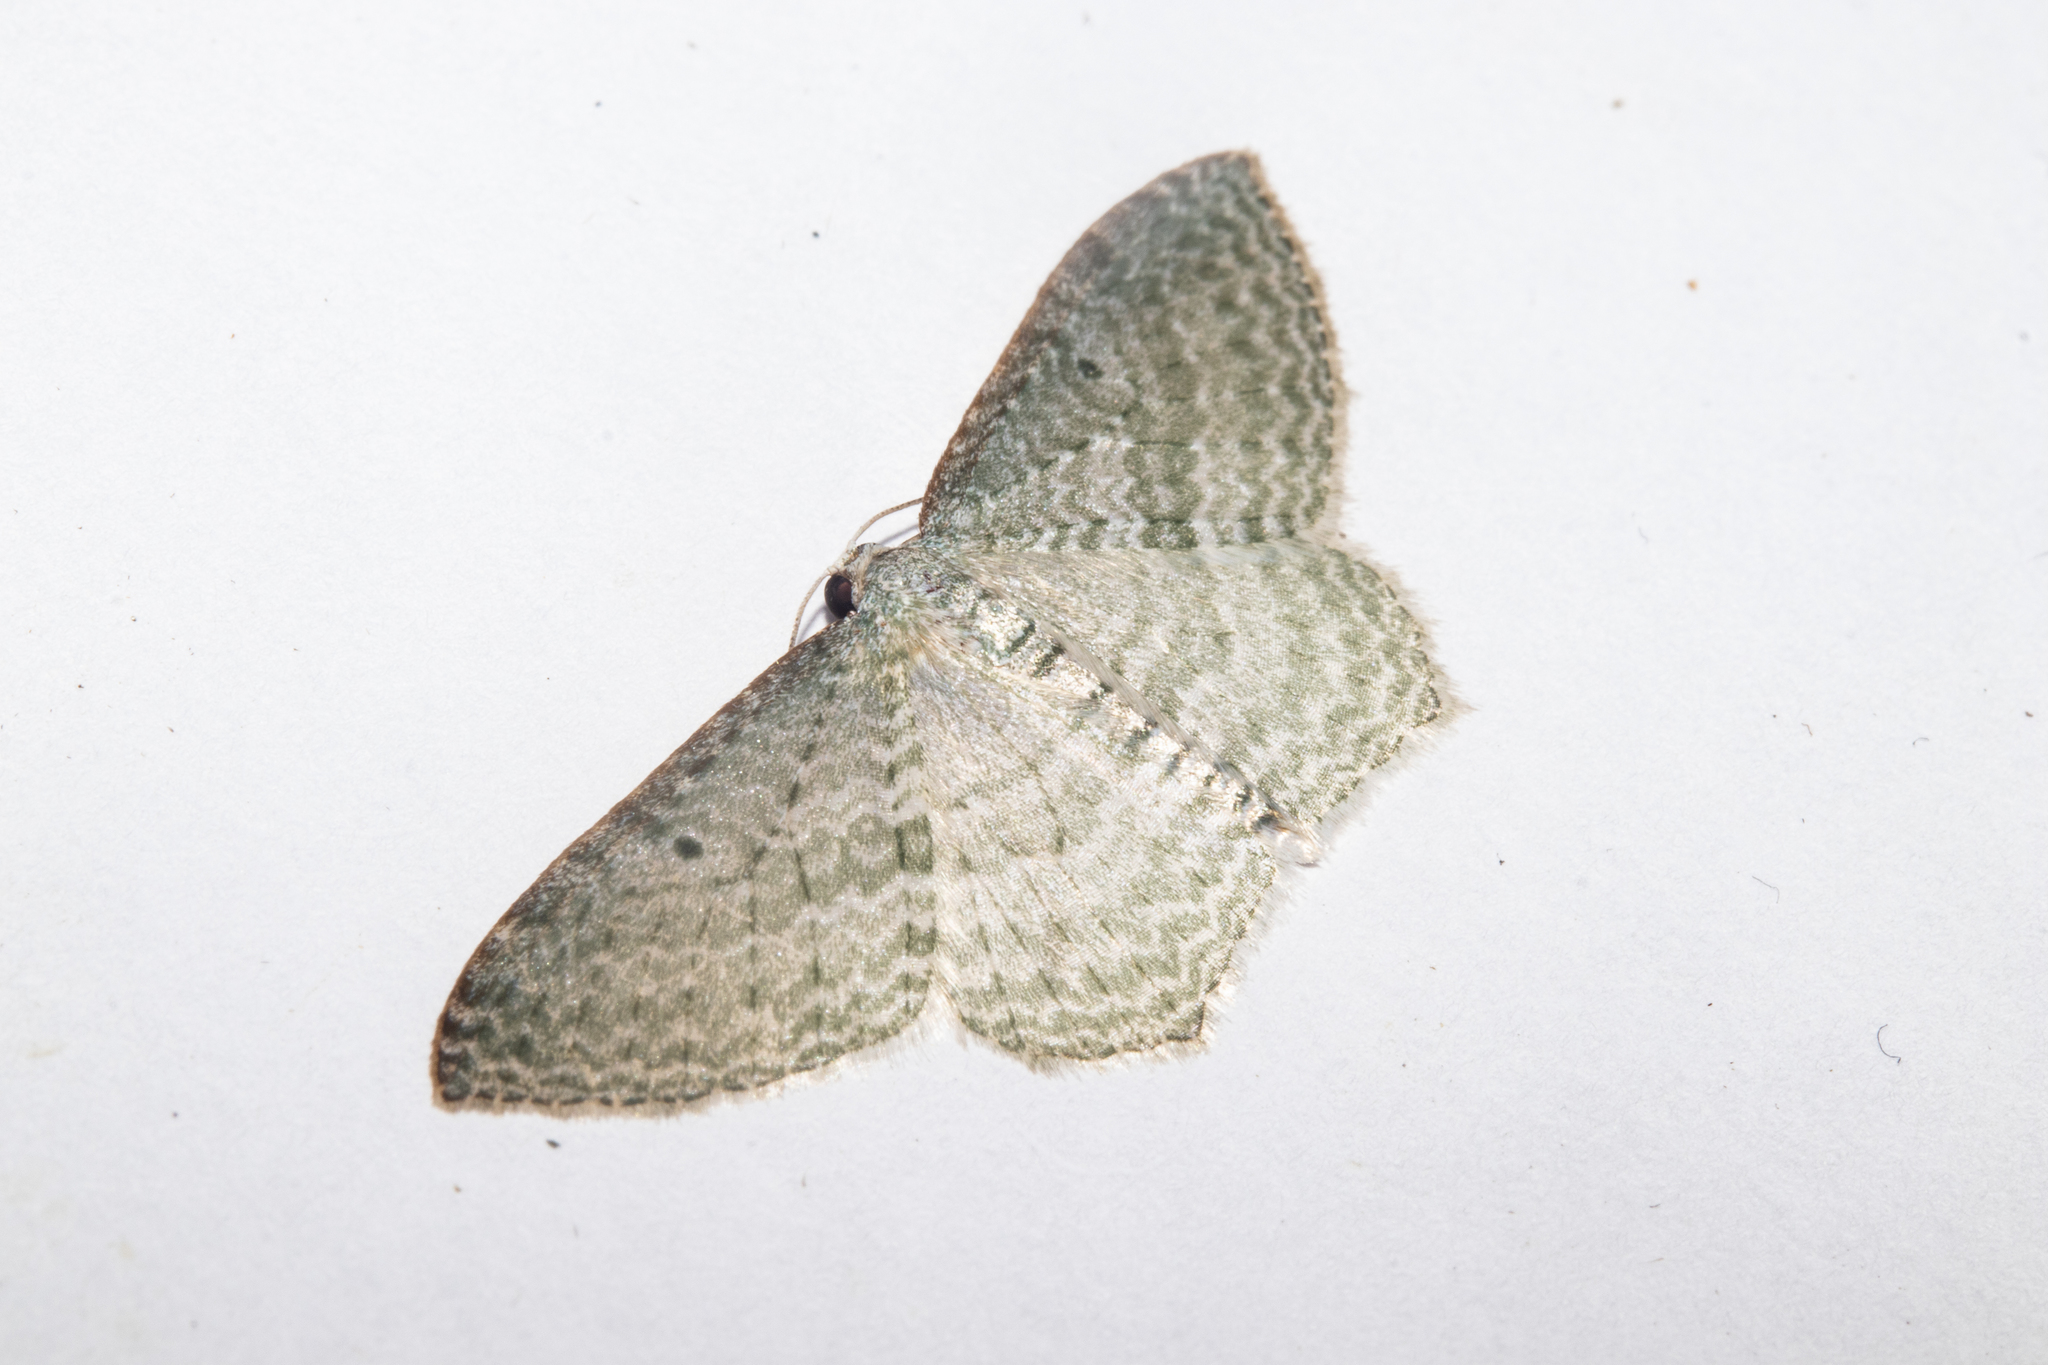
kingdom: Animalia
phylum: Arthropoda
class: Insecta
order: Lepidoptera
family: Geometridae
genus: Poecilasthena
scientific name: Poecilasthena pulchraria
